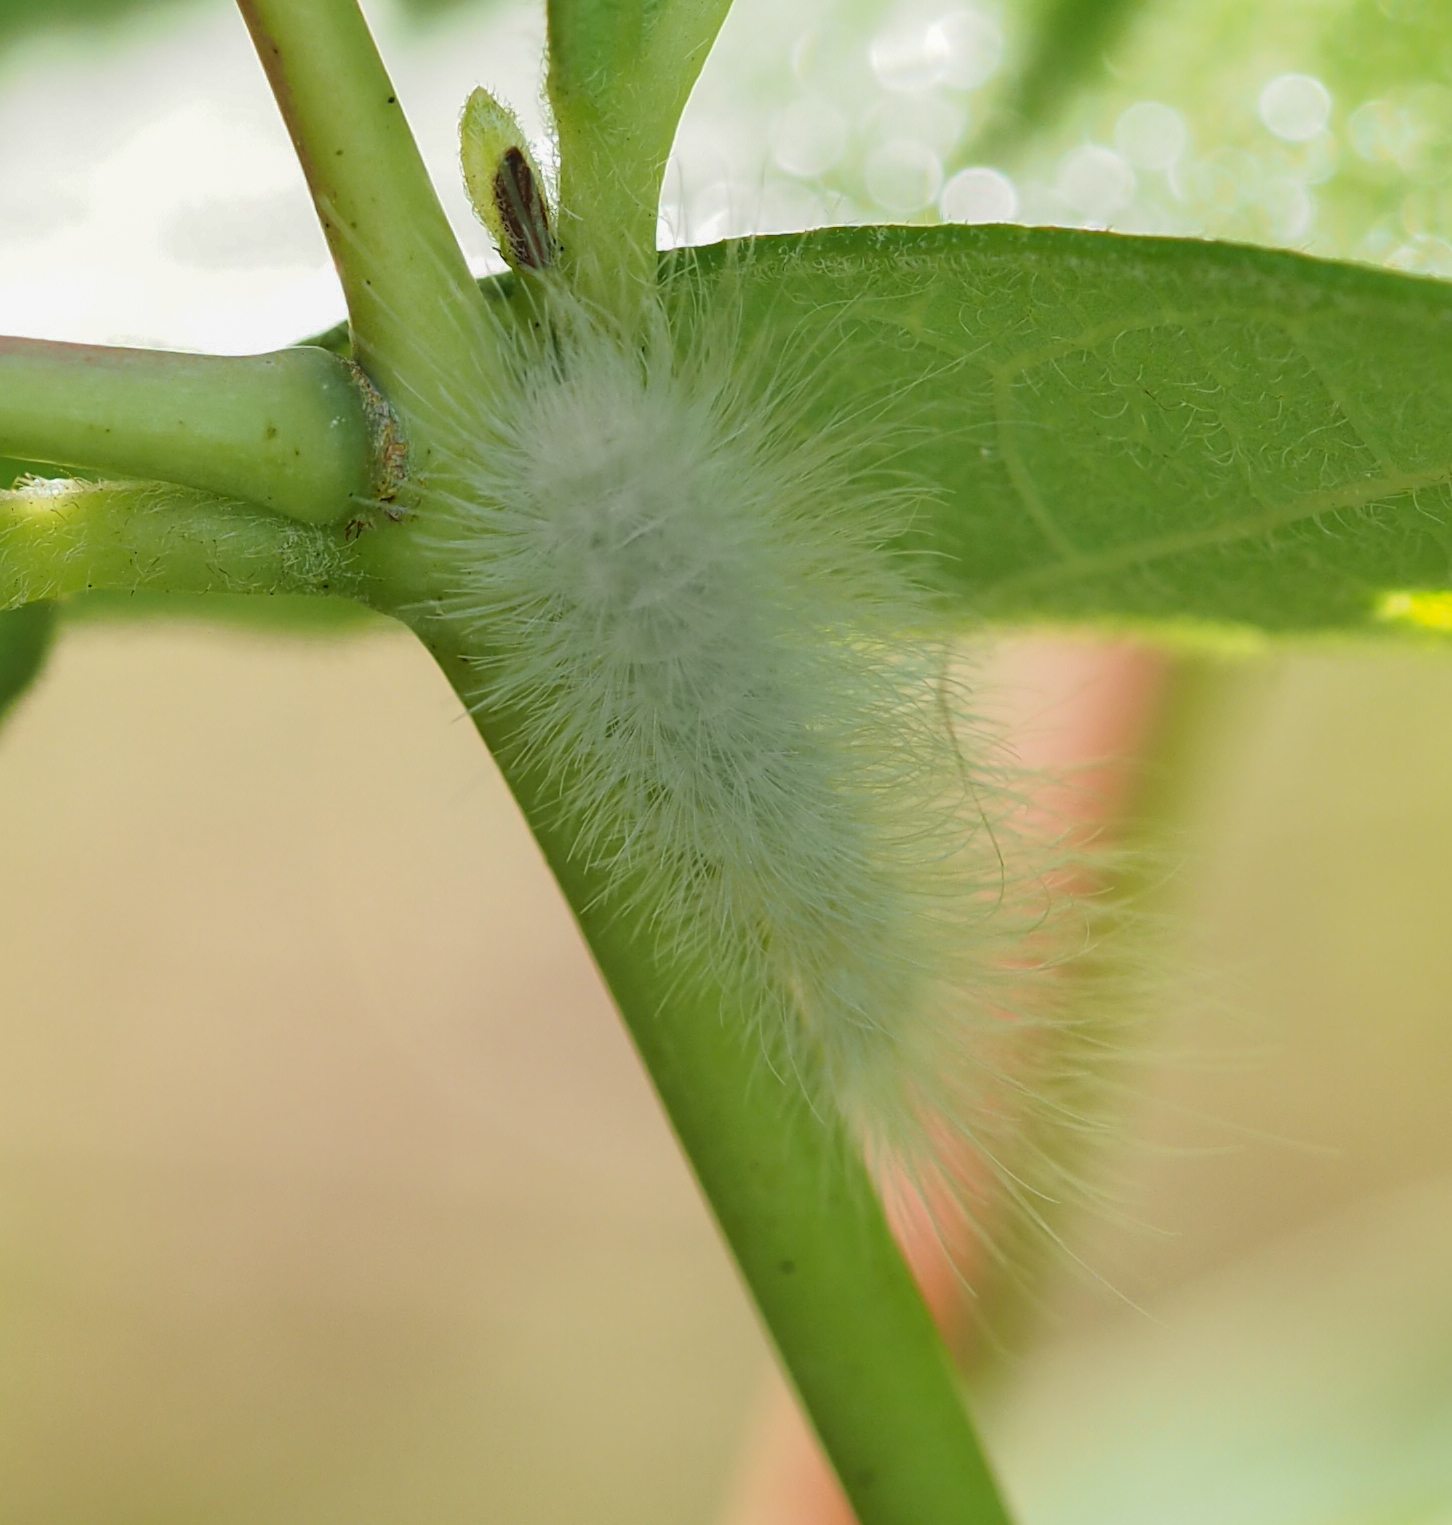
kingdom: Animalia
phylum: Arthropoda
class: Insecta
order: Lepidoptera
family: Erebidae
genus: Cycnia
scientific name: Cycnia tenera
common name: Delicate cycnia moth
